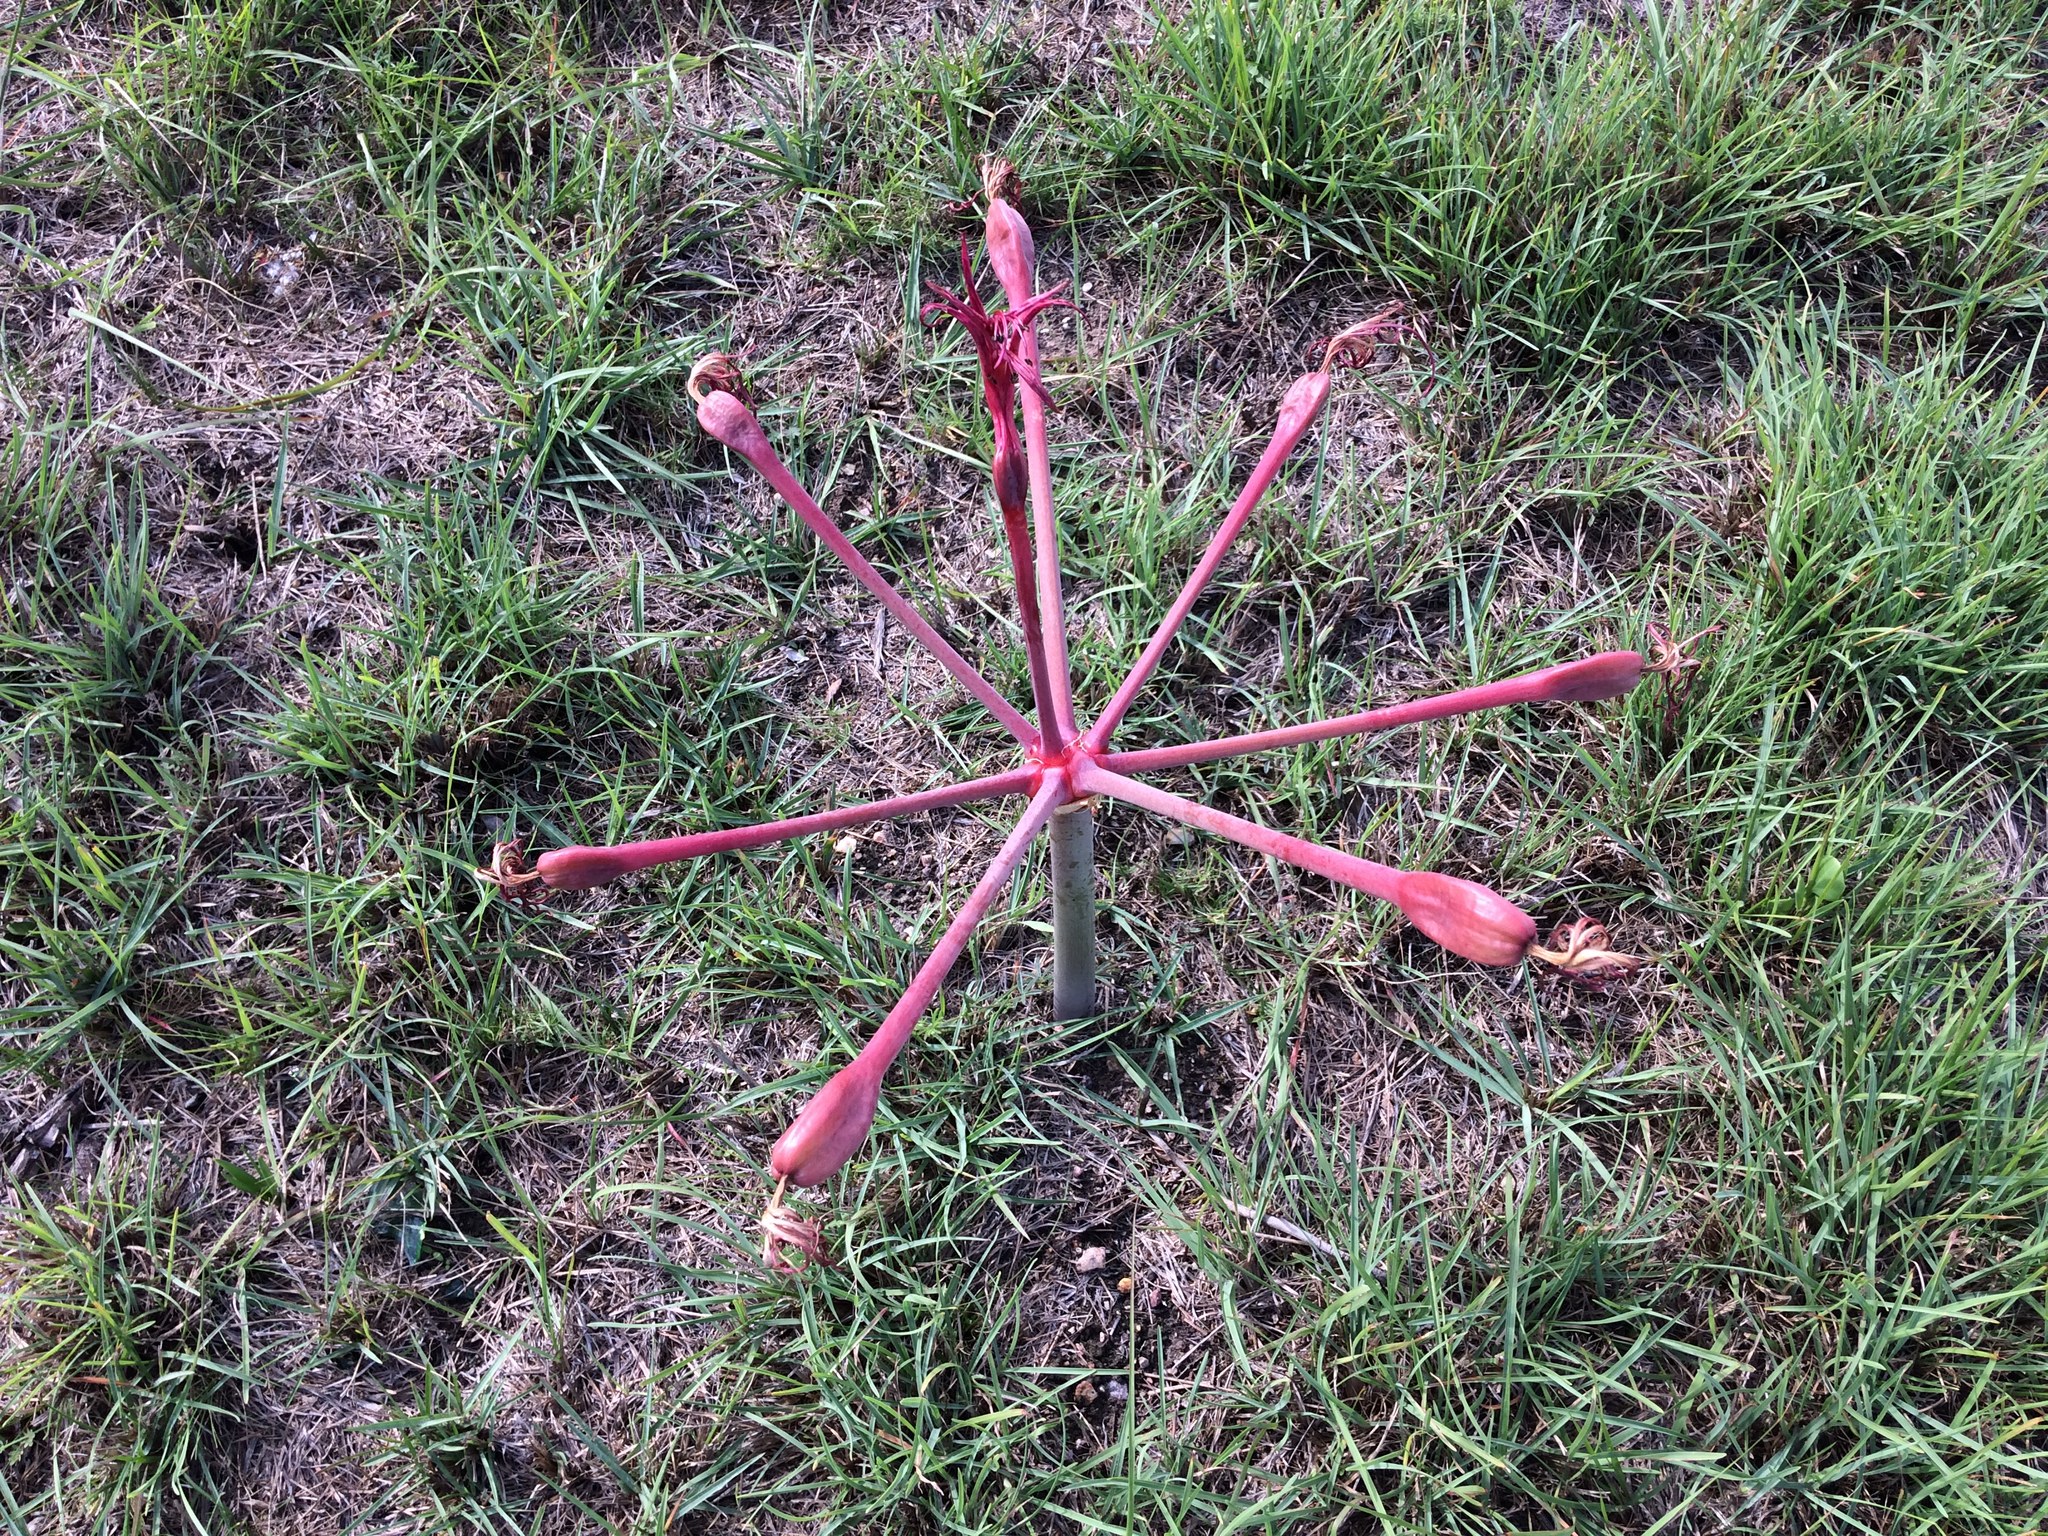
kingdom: Plantae
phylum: Tracheophyta
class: Liliopsida
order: Asparagales
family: Amaryllidaceae
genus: Brunsvigia
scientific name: Brunsvigia litoralis
